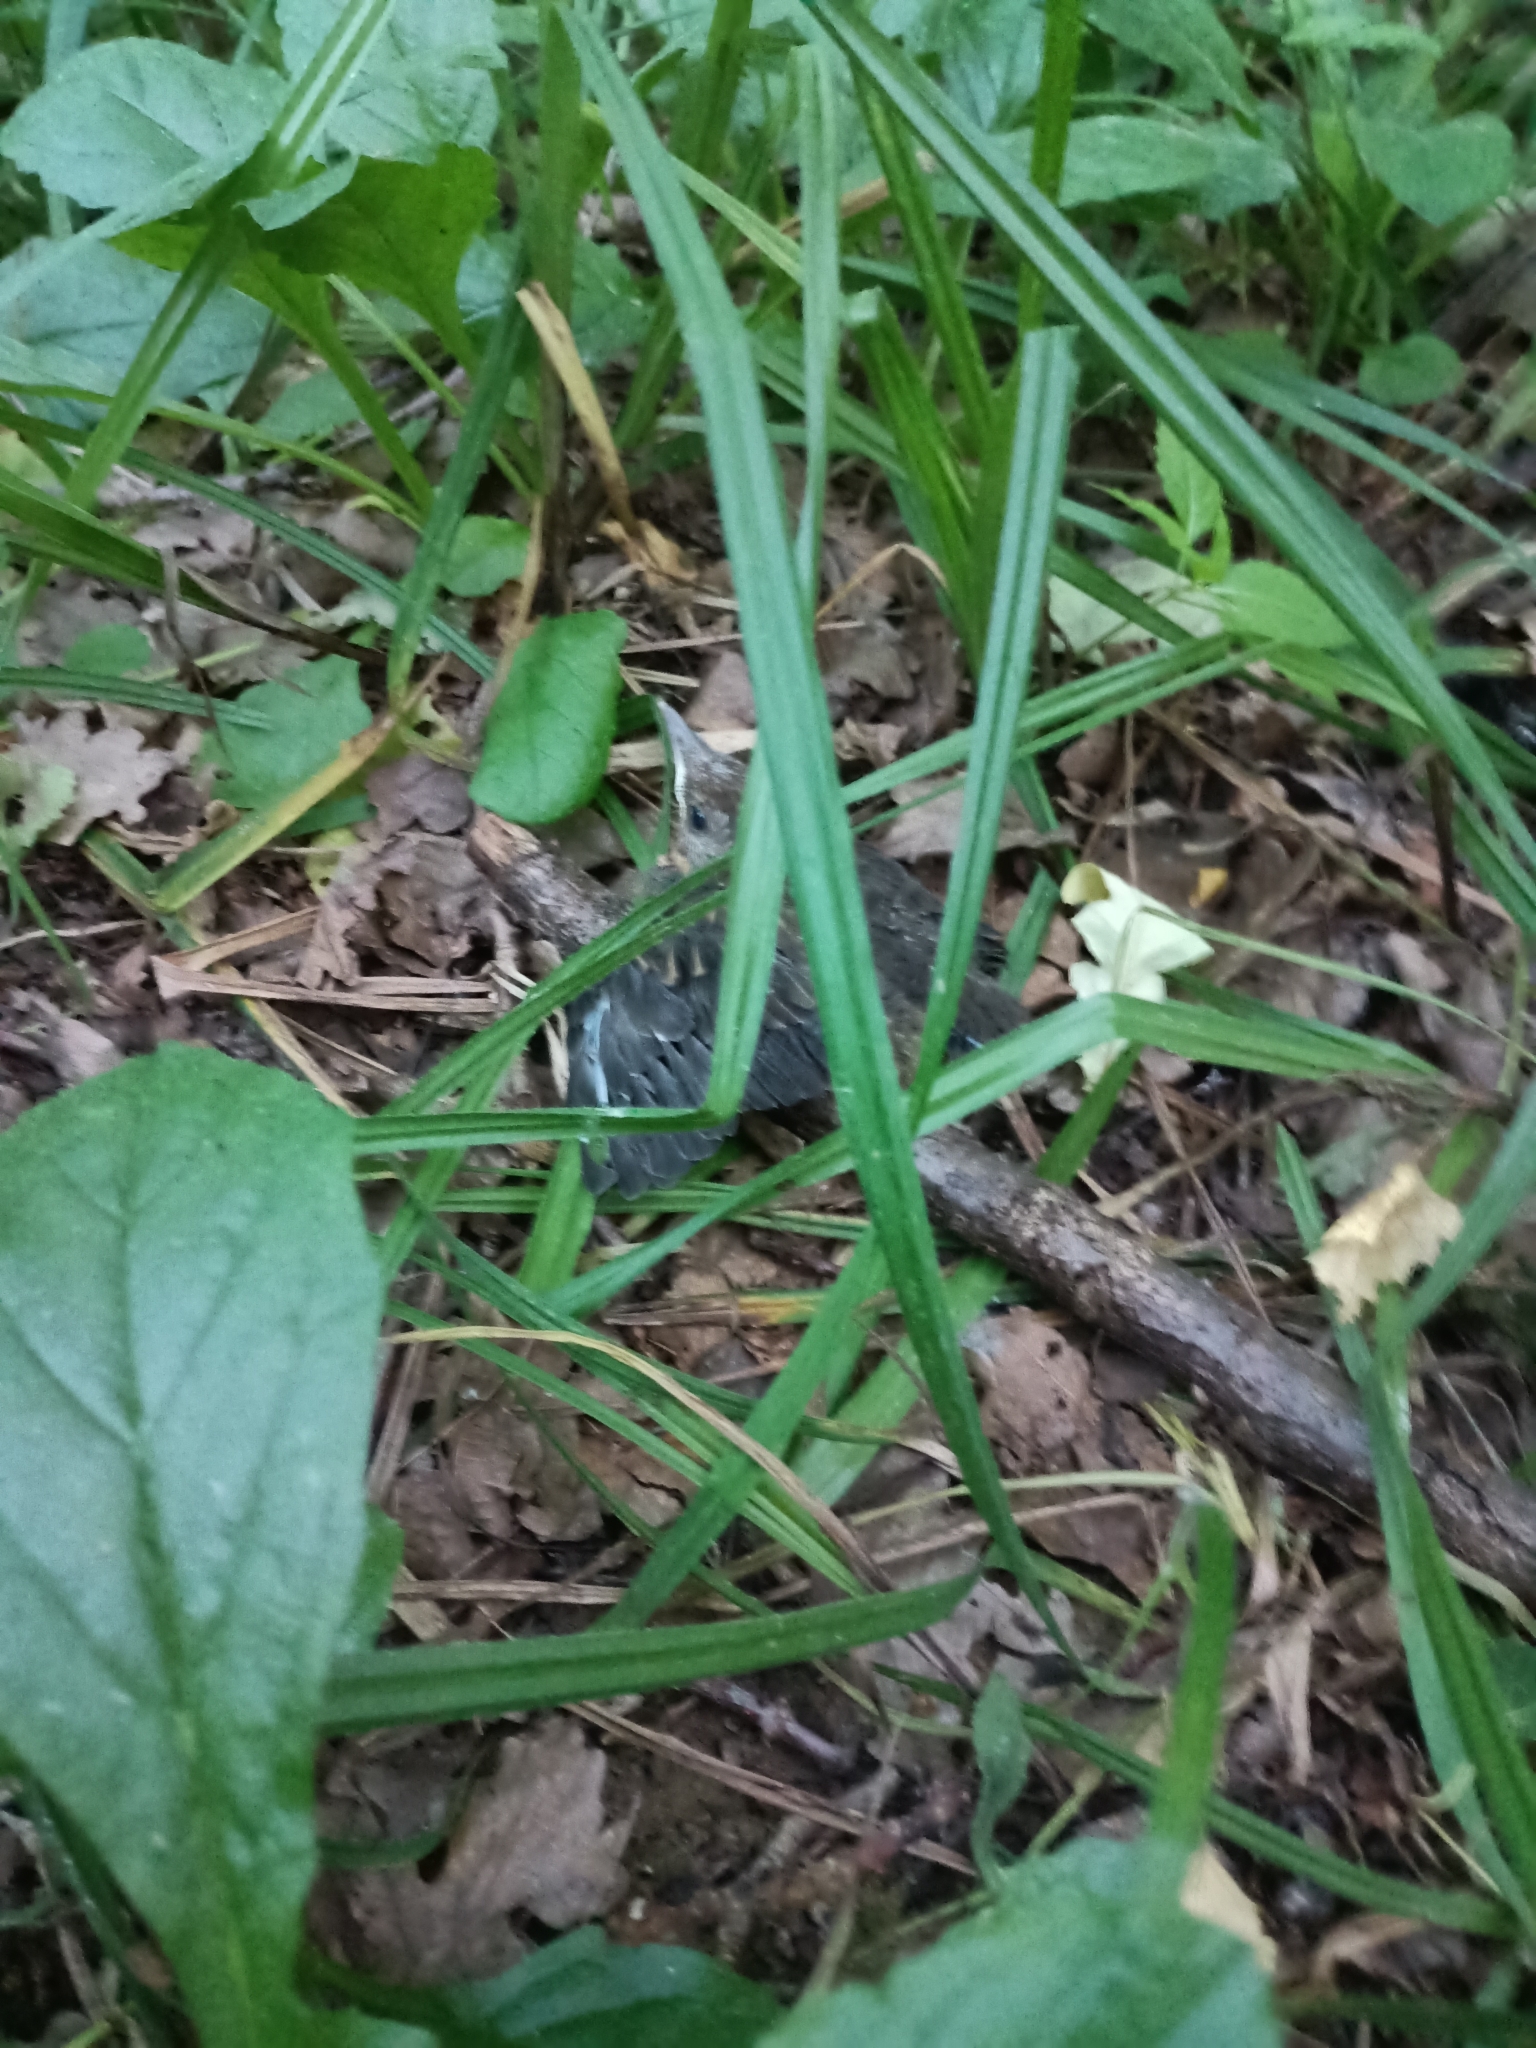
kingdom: Animalia
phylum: Chordata
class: Aves
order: Passeriformes
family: Turdidae
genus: Turdus
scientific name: Turdus pilaris
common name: Fieldfare
